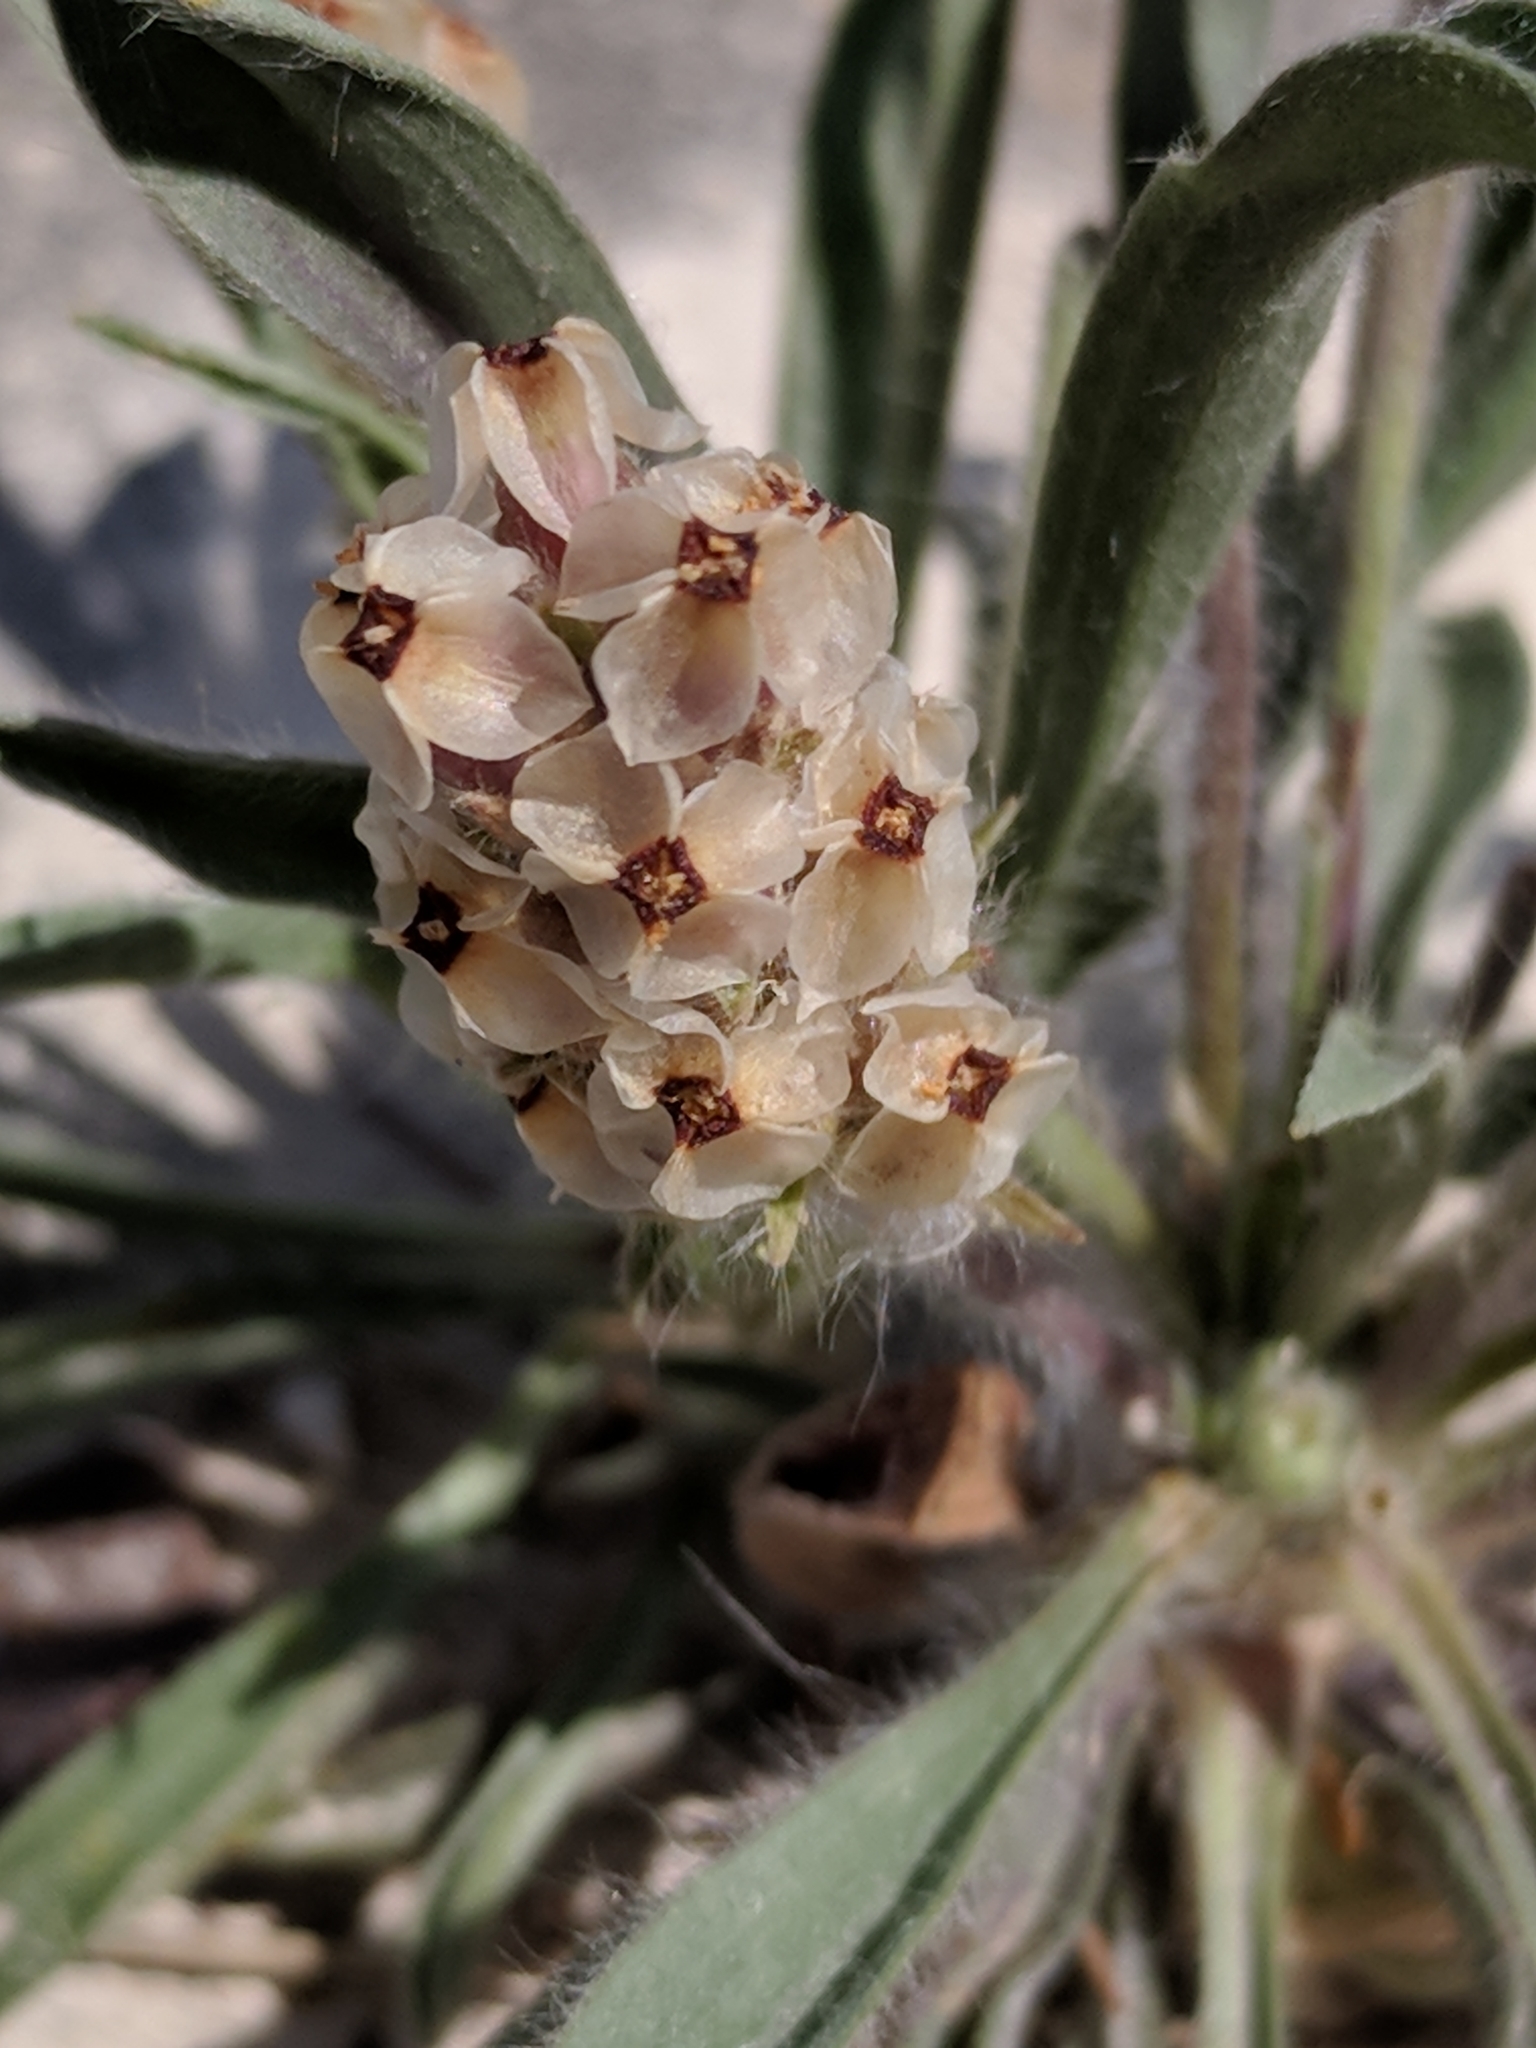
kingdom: Plantae
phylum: Tracheophyta
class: Magnoliopsida
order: Lamiales
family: Plantaginaceae
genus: Plantago
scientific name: Plantago helleri
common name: Heller's plantain
